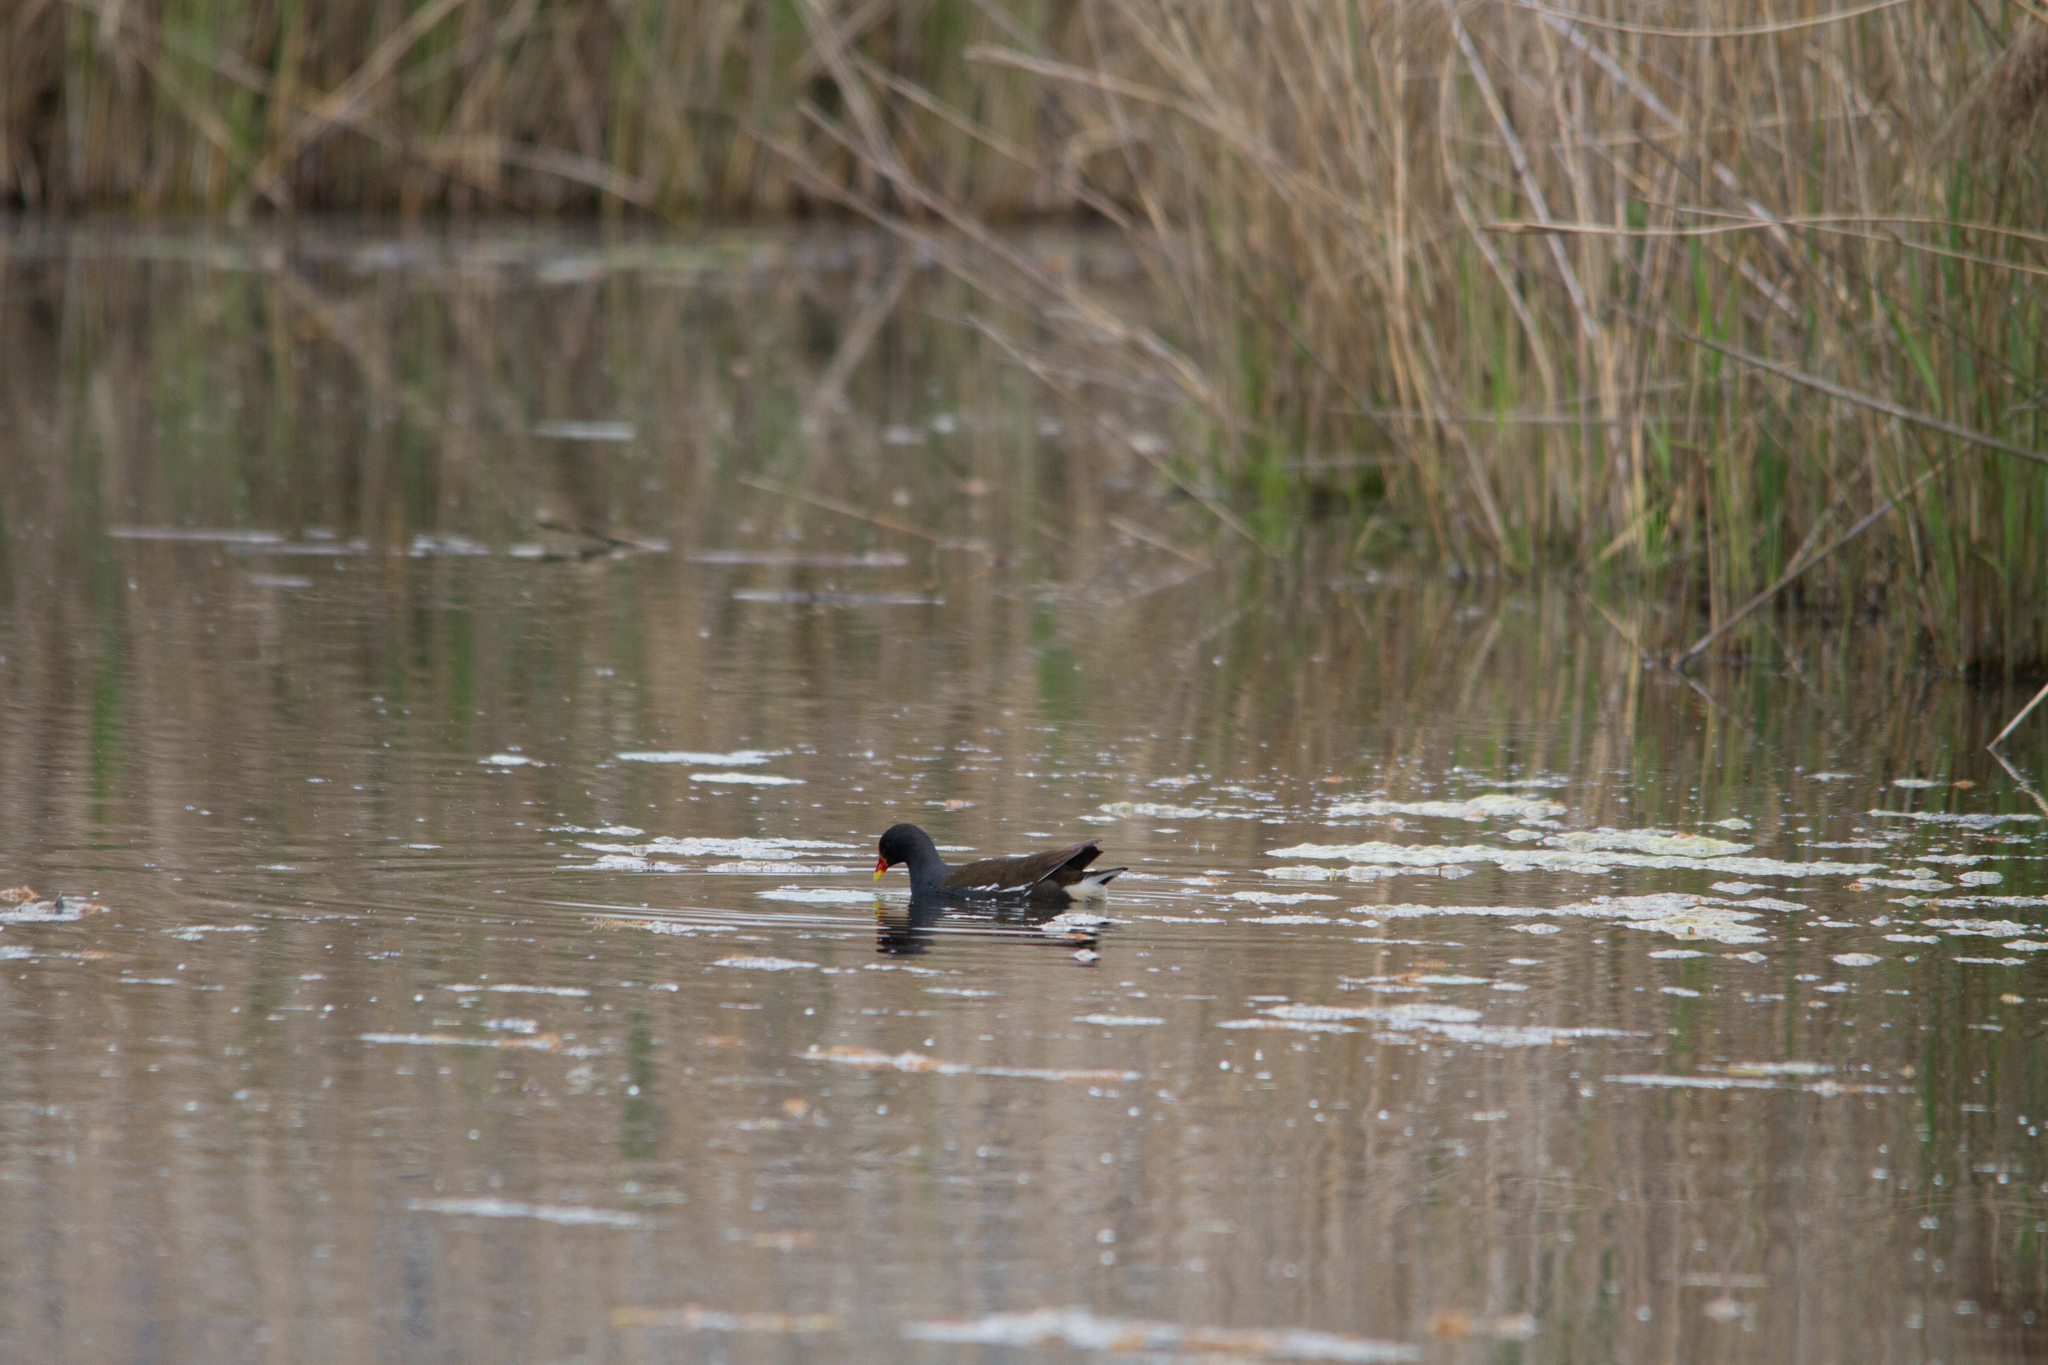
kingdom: Animalia
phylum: Chordata
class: Aves
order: Gruiformes
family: Rallidae
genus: Gallinula
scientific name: Gallinula chloropus
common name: Common moorhen
